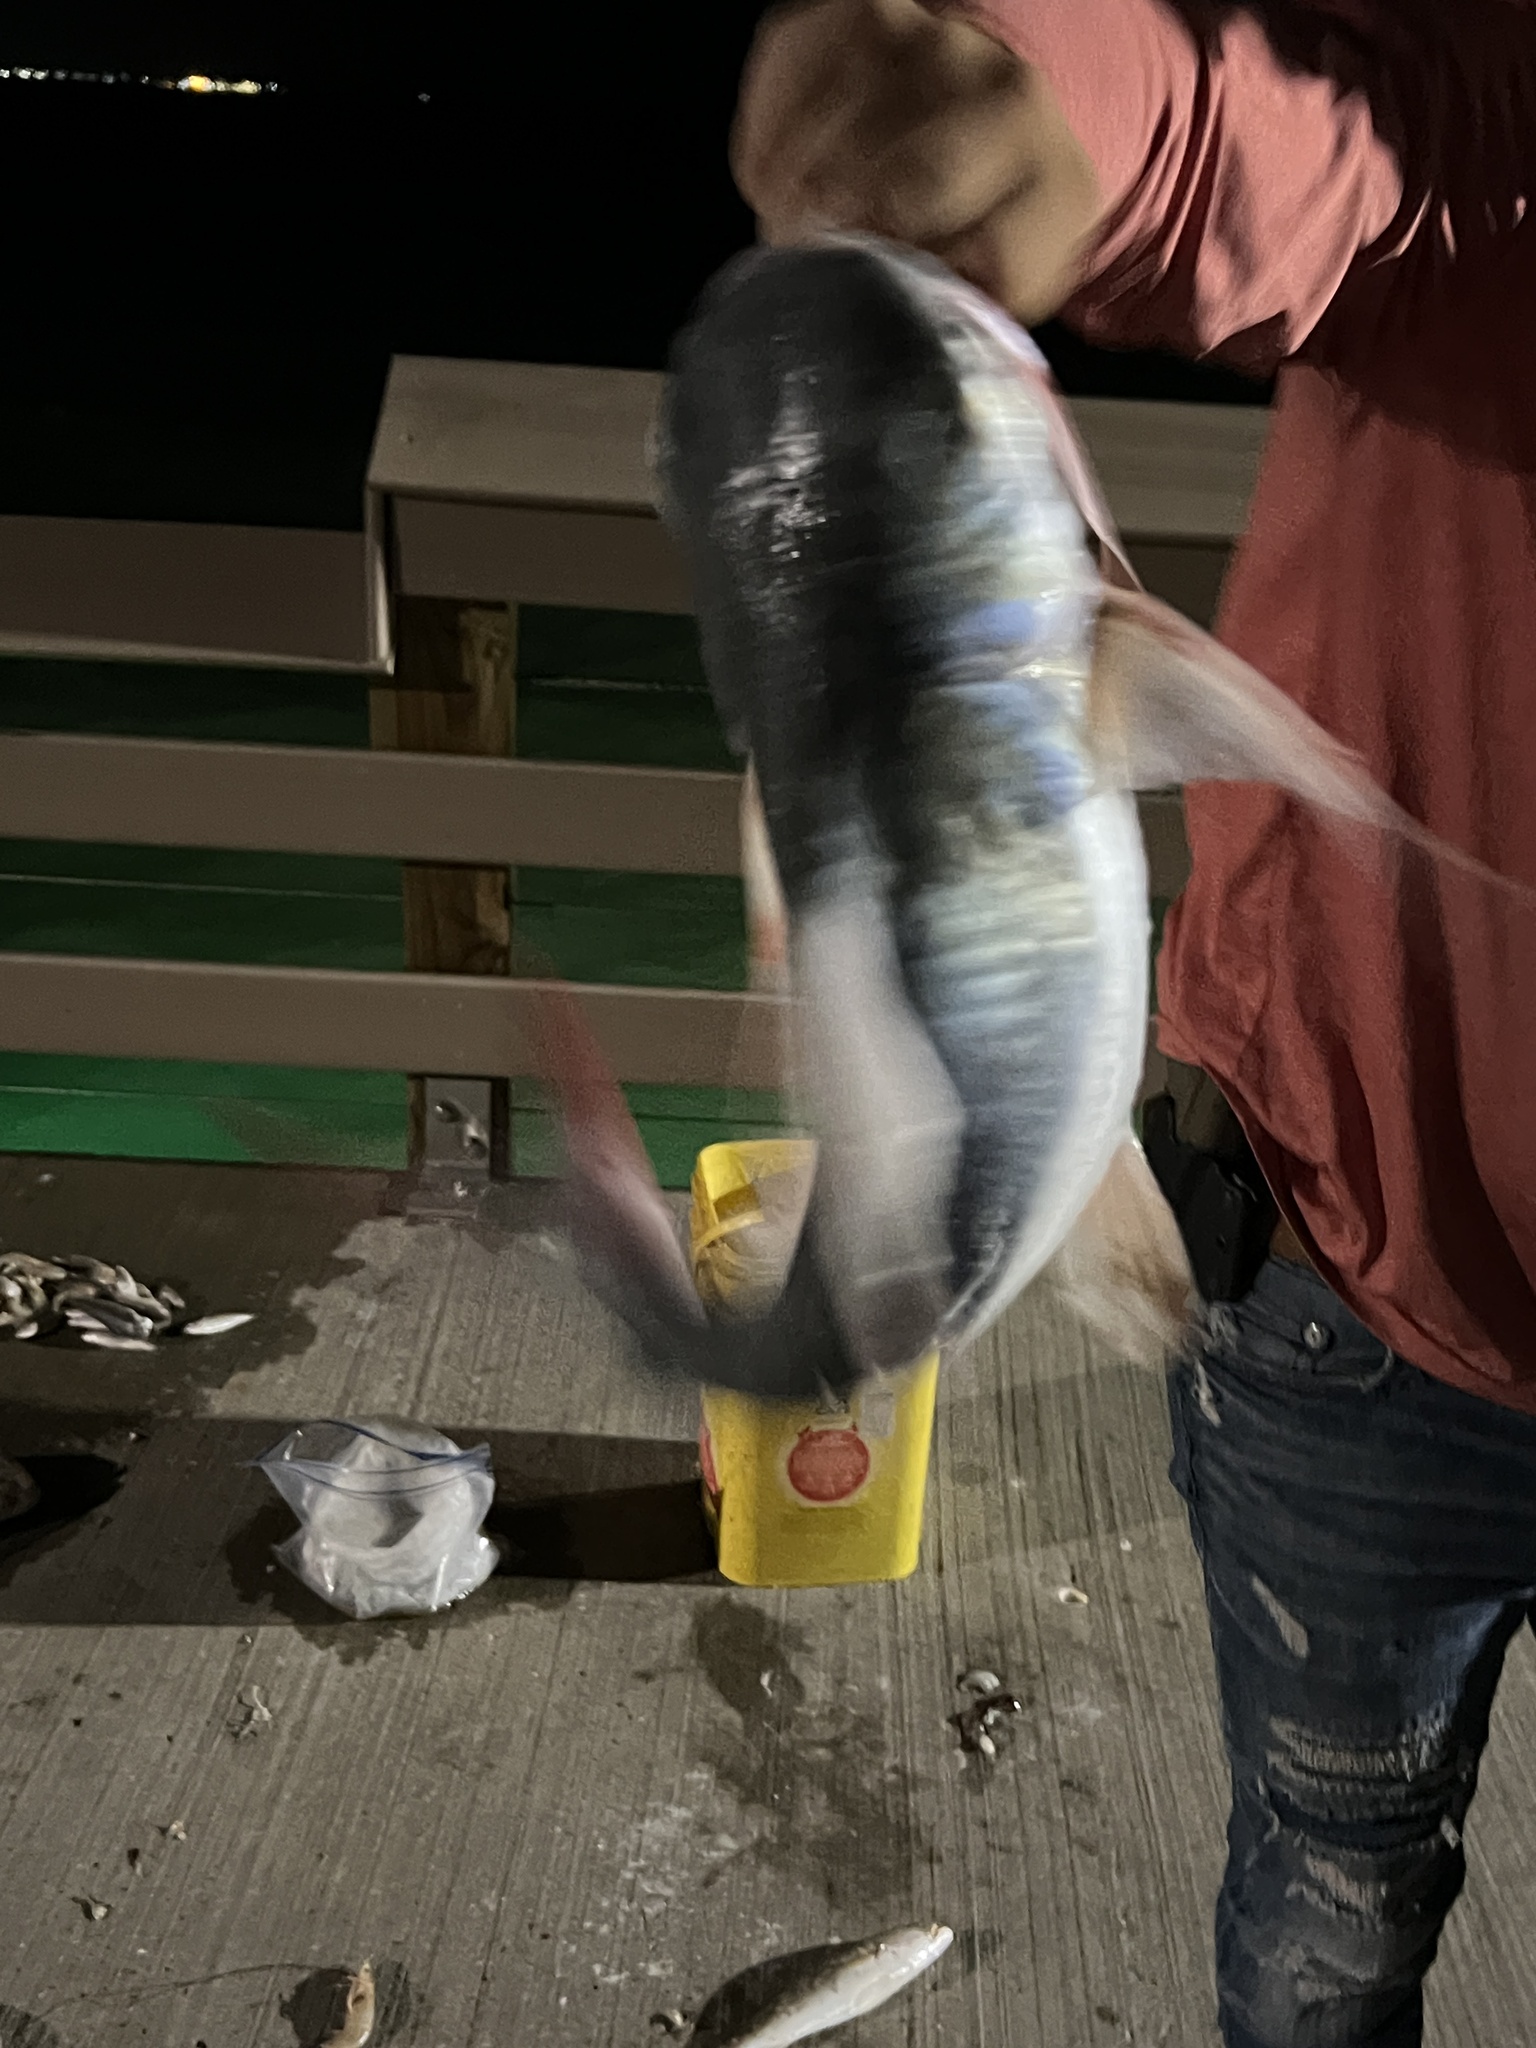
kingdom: Animalia
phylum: Chordata
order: Siluriformes
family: Ariidae
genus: Bagre
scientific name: Bagre marinus
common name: Gafftopsail sea catfish
